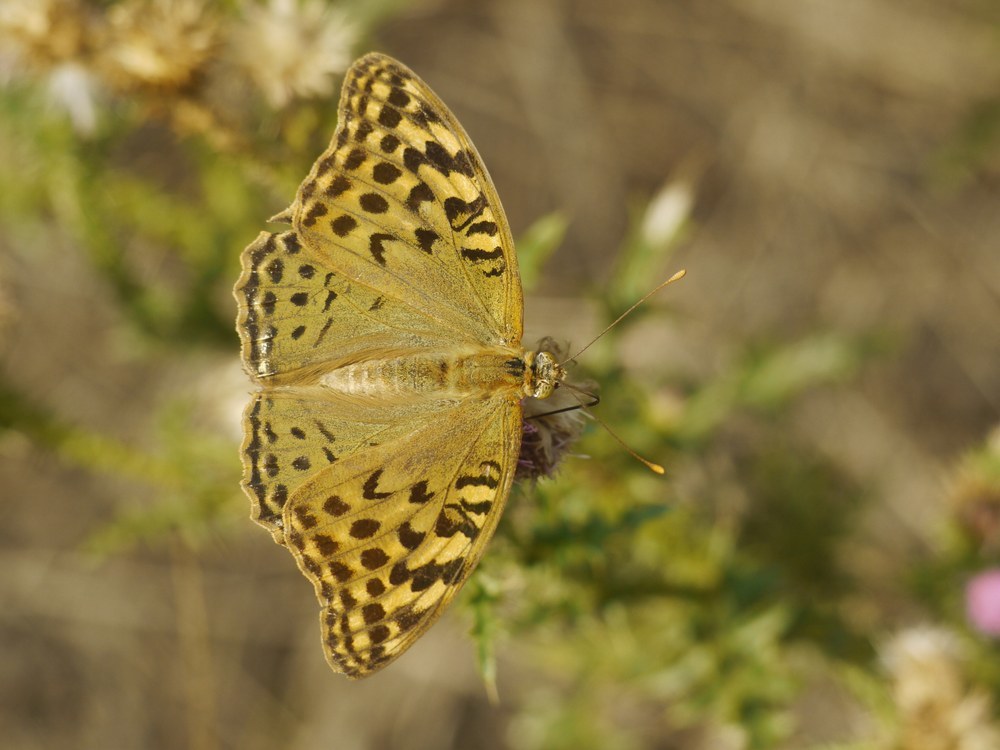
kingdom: Animalia
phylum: Arthropoda
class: Insecta
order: Lepidoptera
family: Nymphalidae
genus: Damora
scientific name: Damora pandora
